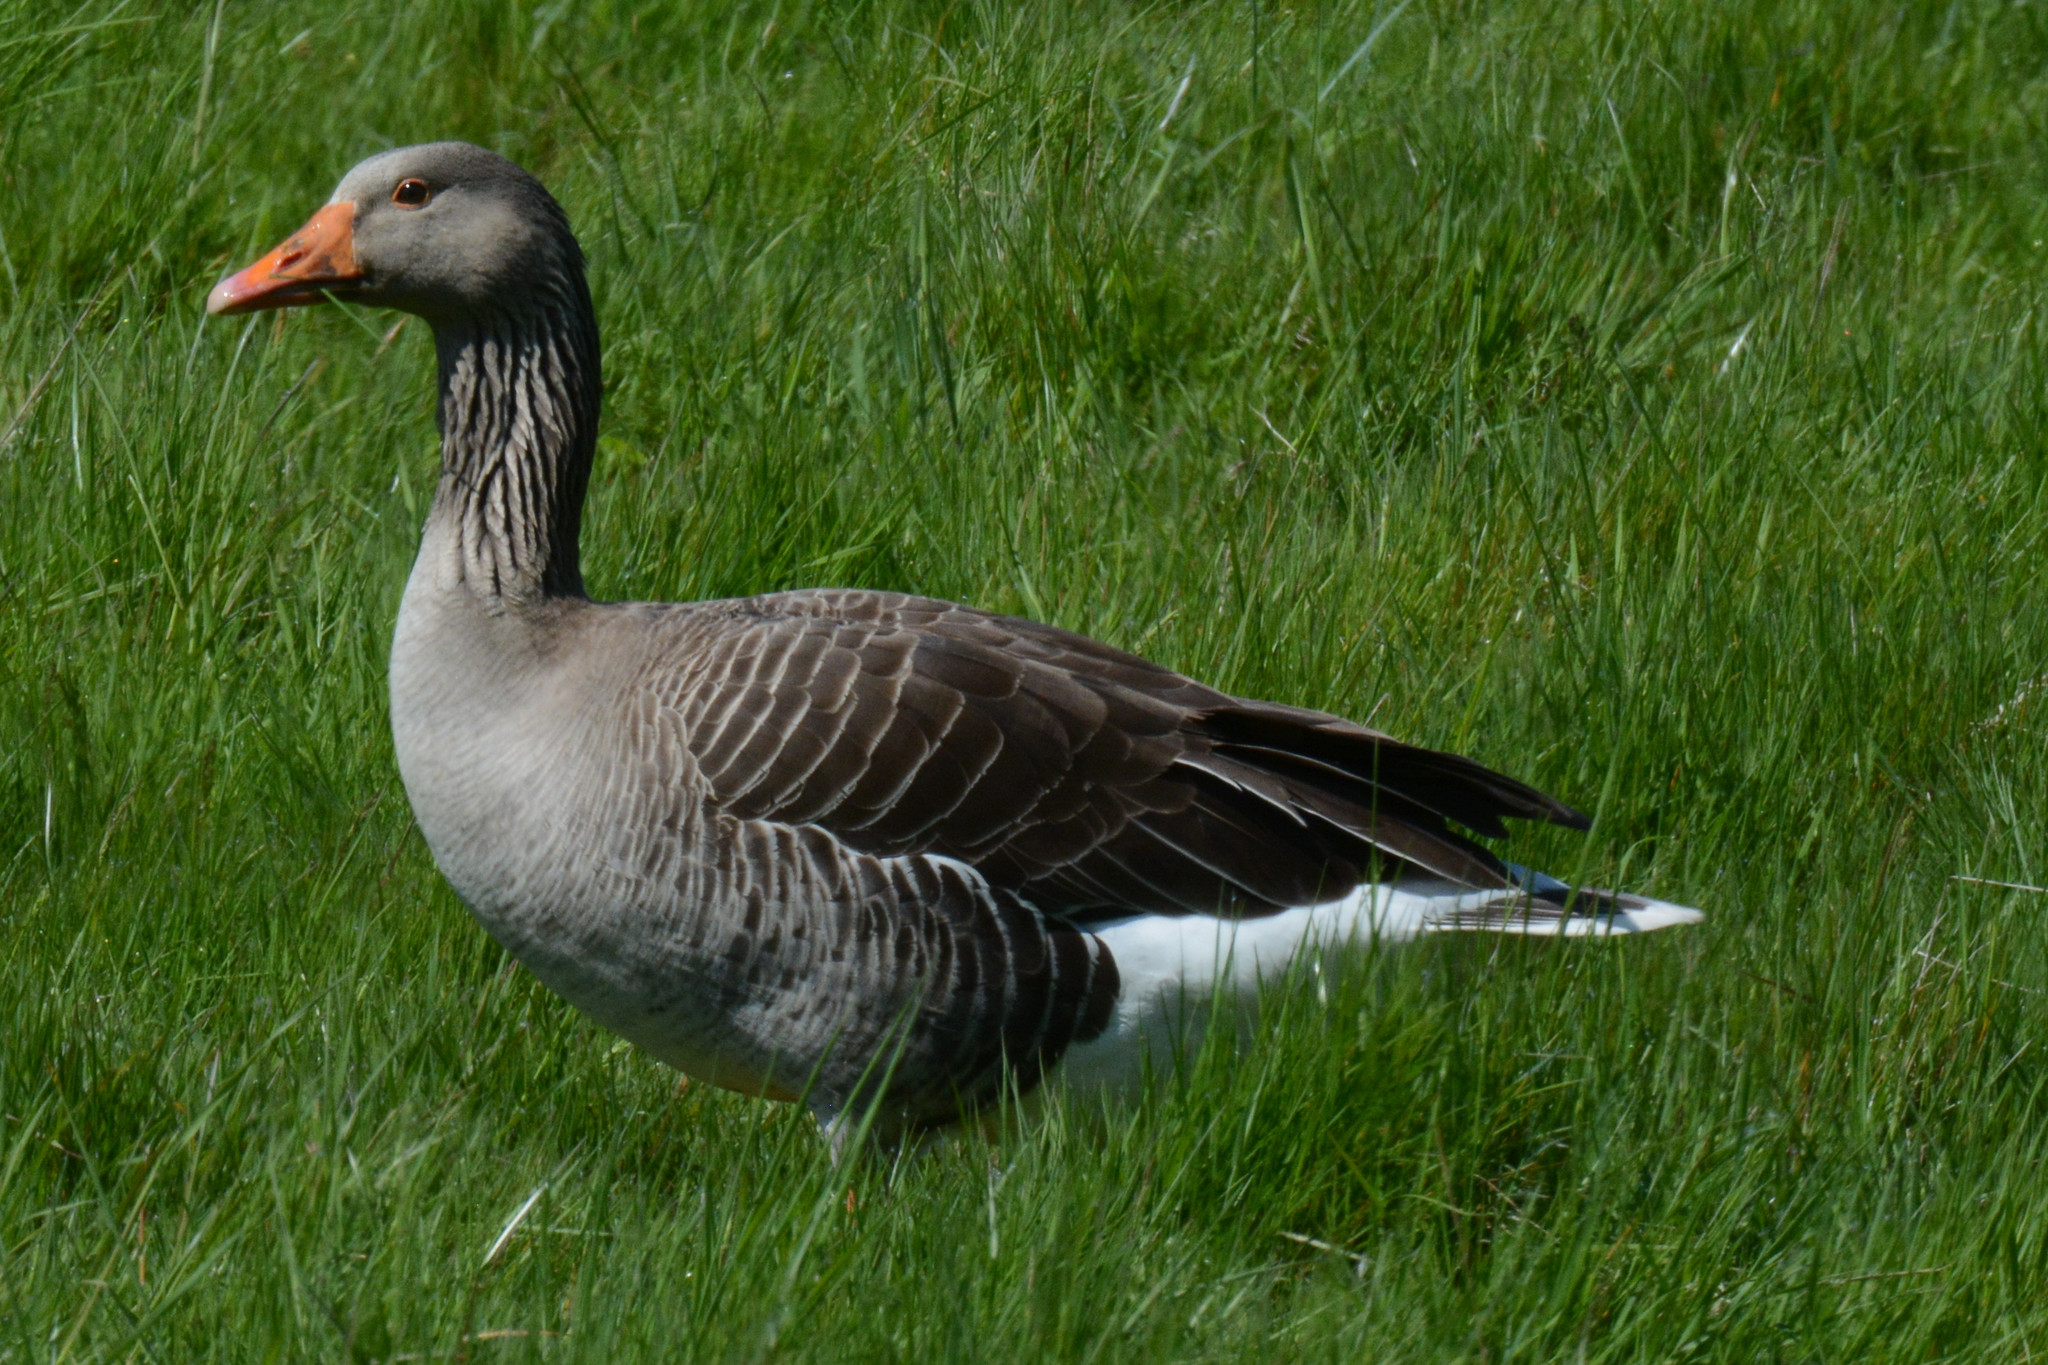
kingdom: Animalia
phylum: Chordata
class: Aves
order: Anseriformes
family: Anatidae
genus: Anser
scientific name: Anser anser
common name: Greylag goose
